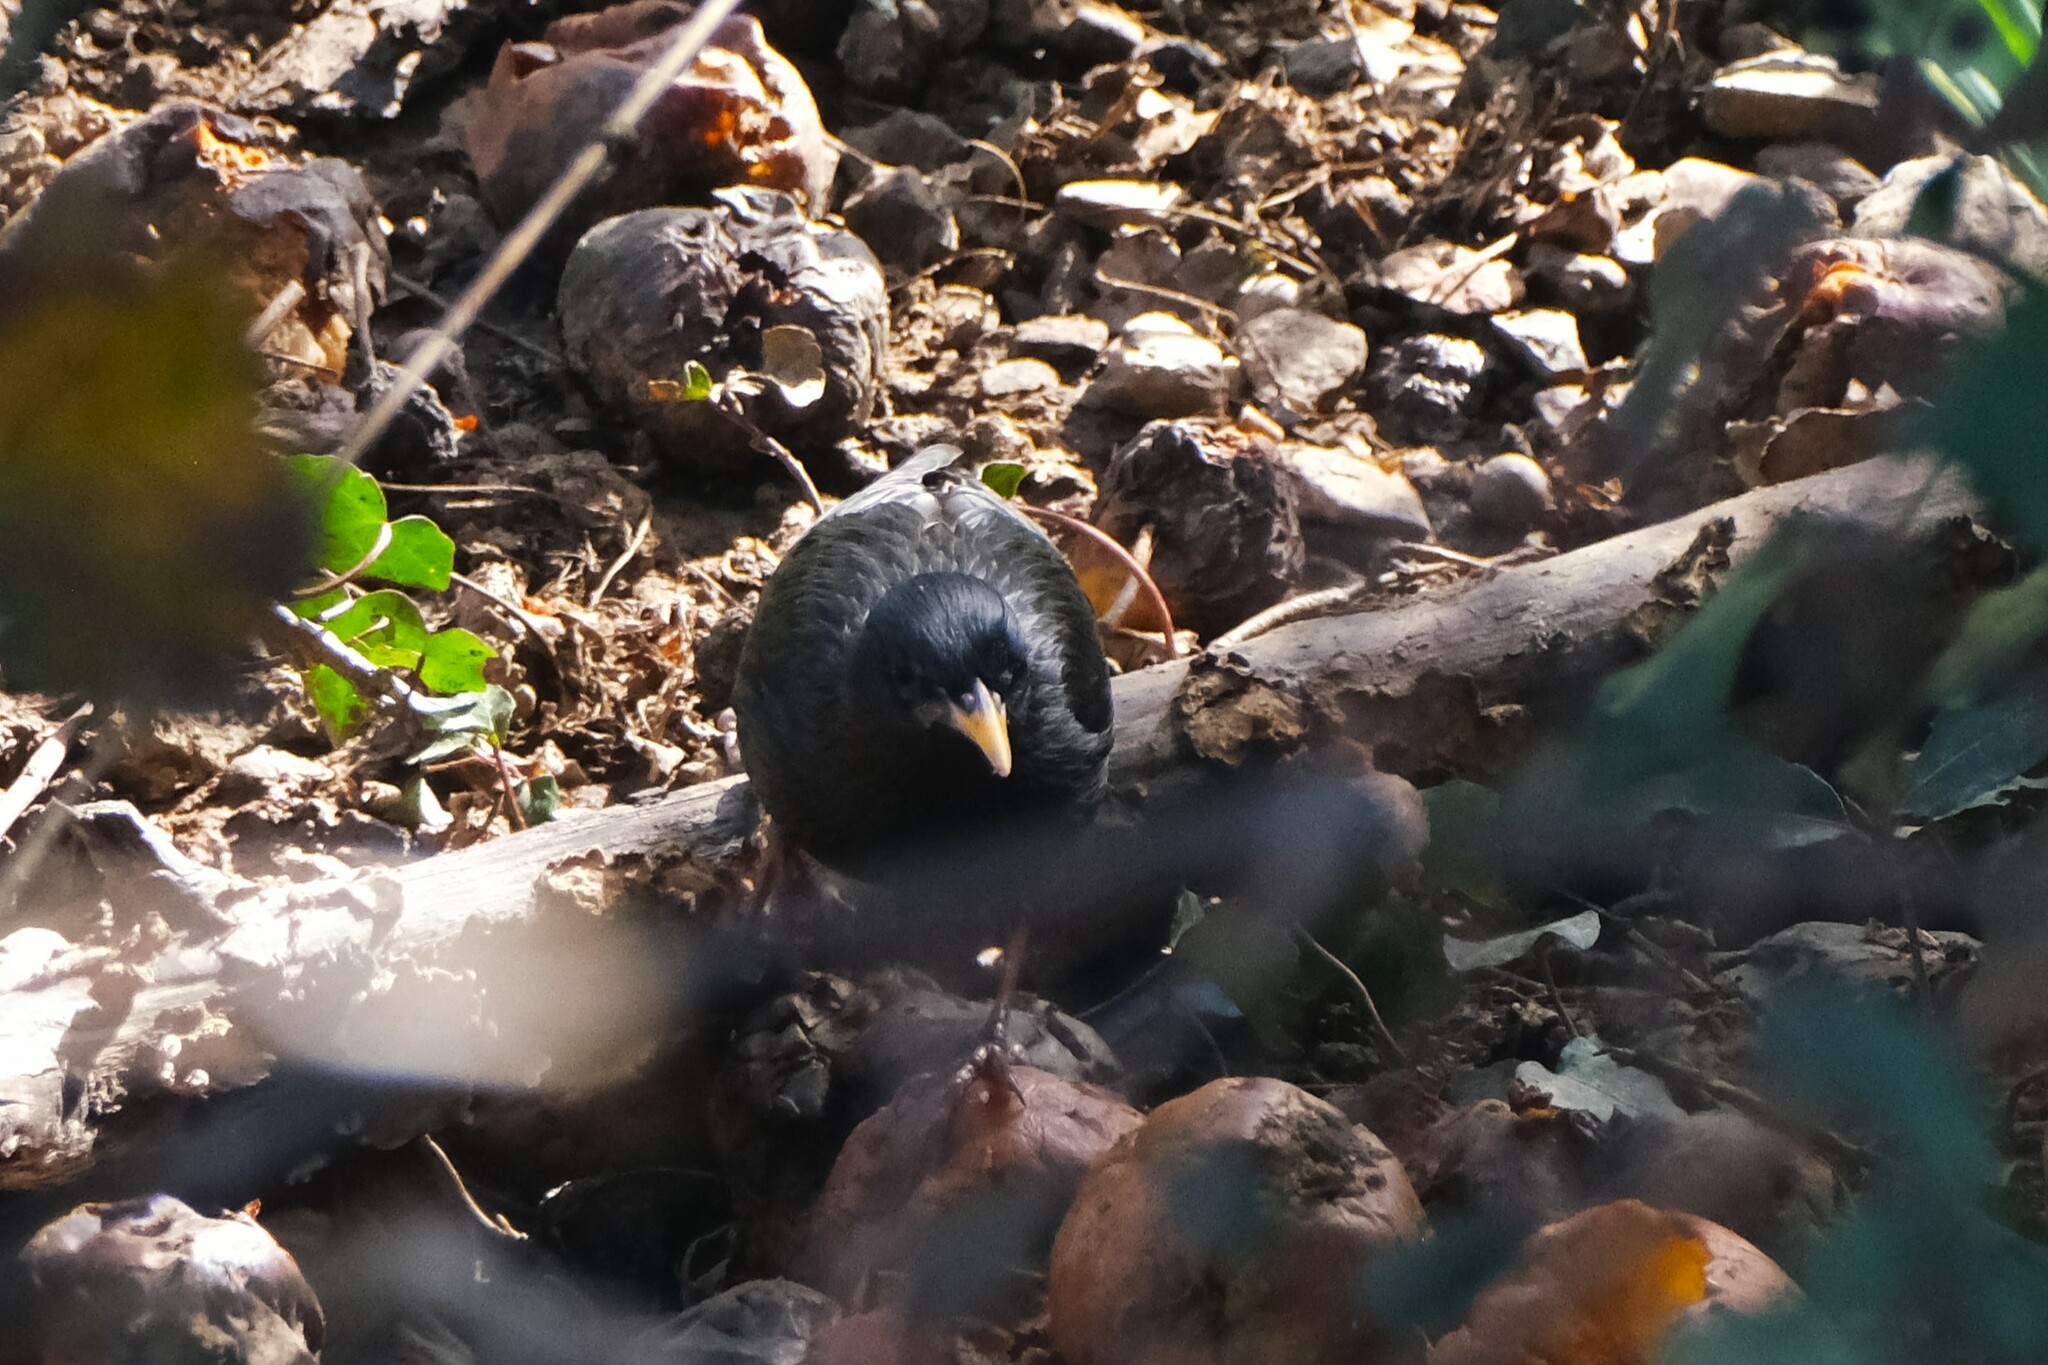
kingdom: Animalia
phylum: Chordata
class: Aves
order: Passeriformes
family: Sturnidae
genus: Sturnus
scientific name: Sturnus unicolor
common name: Spotless starling
